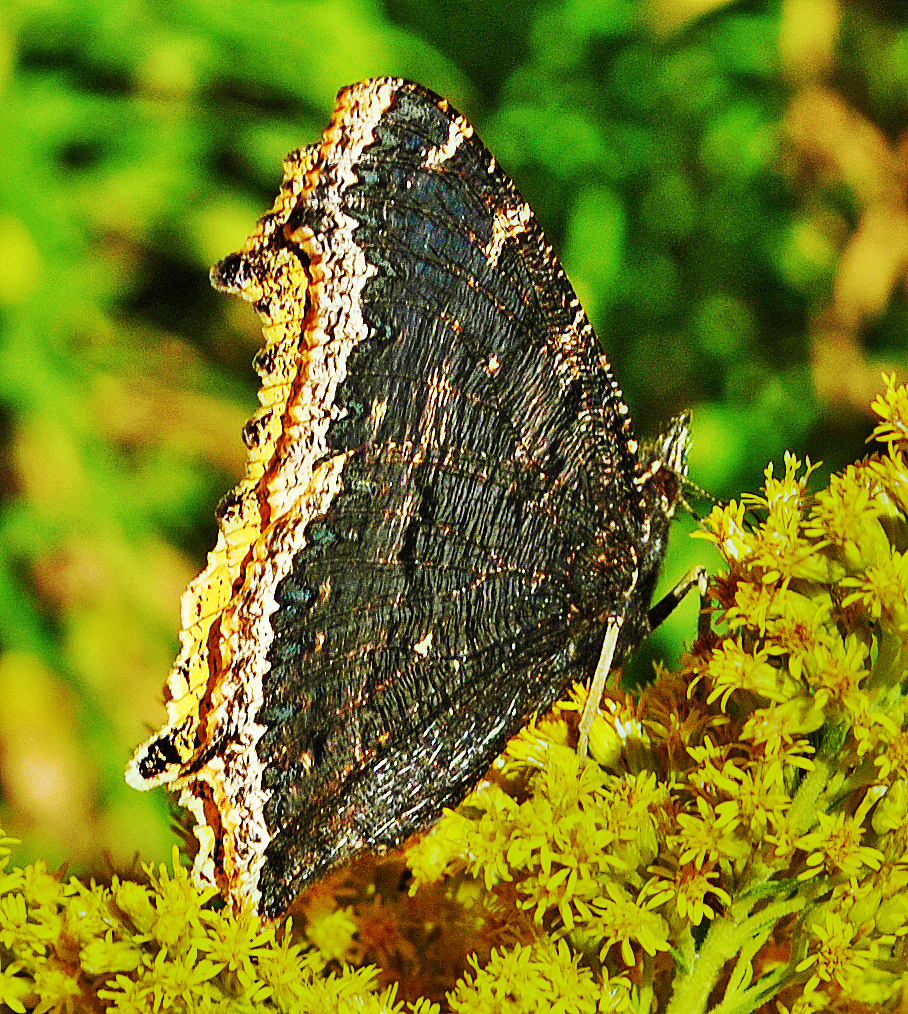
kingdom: Animalia
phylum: Arthropoda
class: Insecta
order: Lepidoptera
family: Nymphalidae
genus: Nymphalis
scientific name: Nymphalis antiopa
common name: Camberwell beauty
